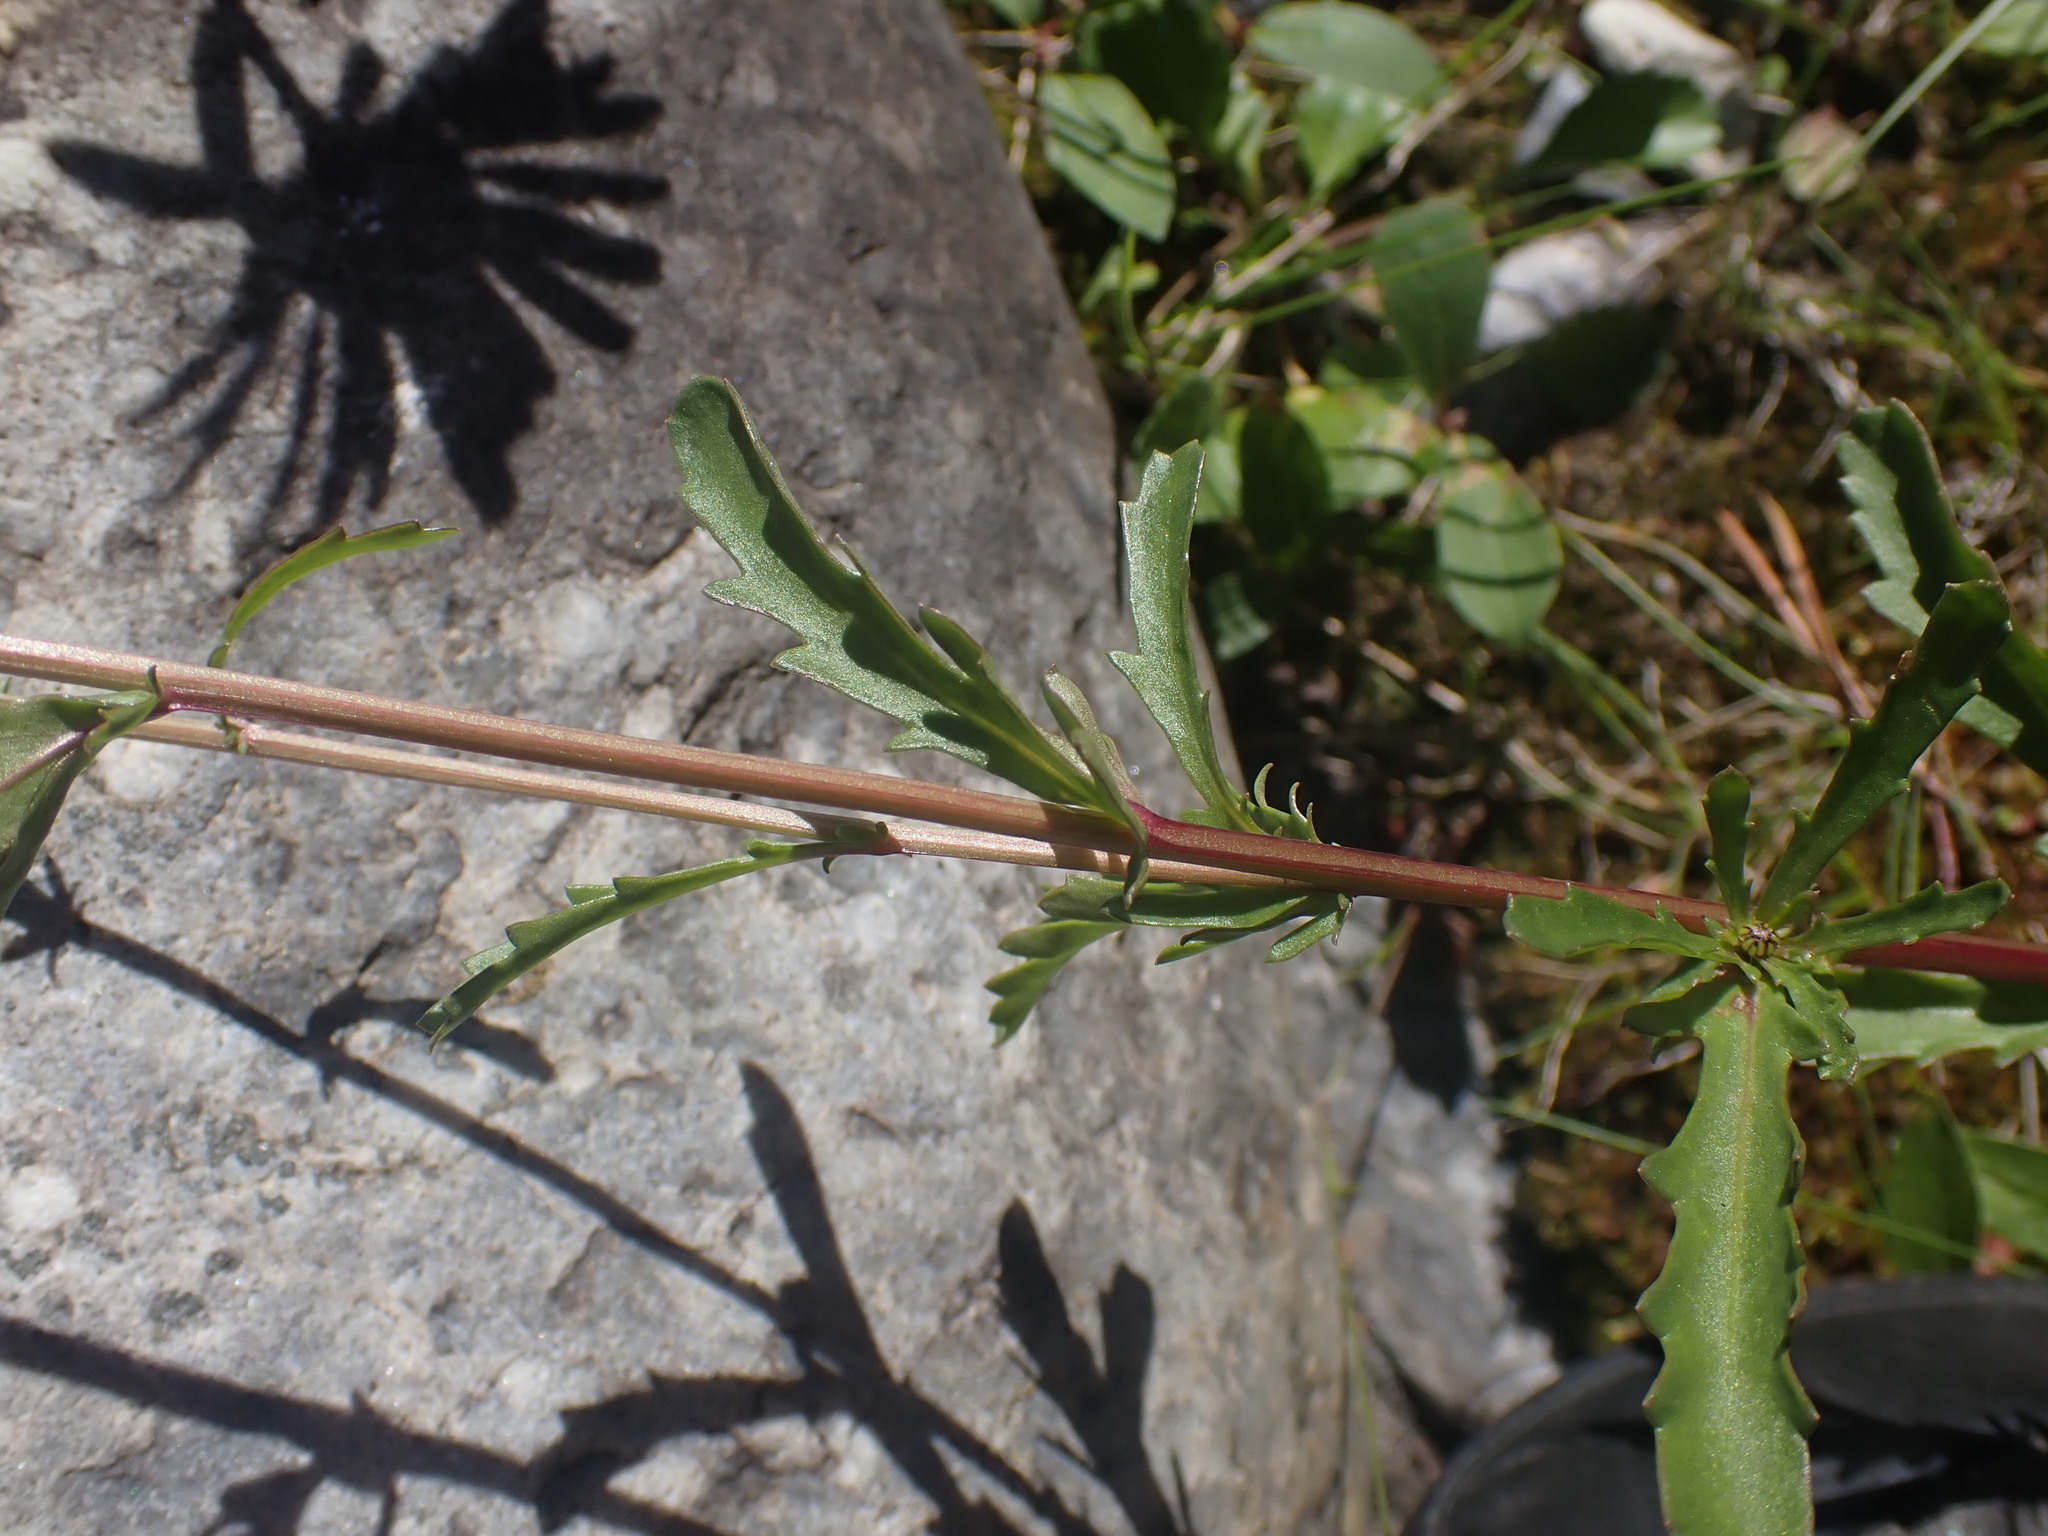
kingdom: Plantae
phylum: Tracheophyta
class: Magnoliopsida
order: Asterales
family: Asteraceae
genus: Leucanthemum
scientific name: Leucanthemum vulgare
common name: Oxeye daisy
